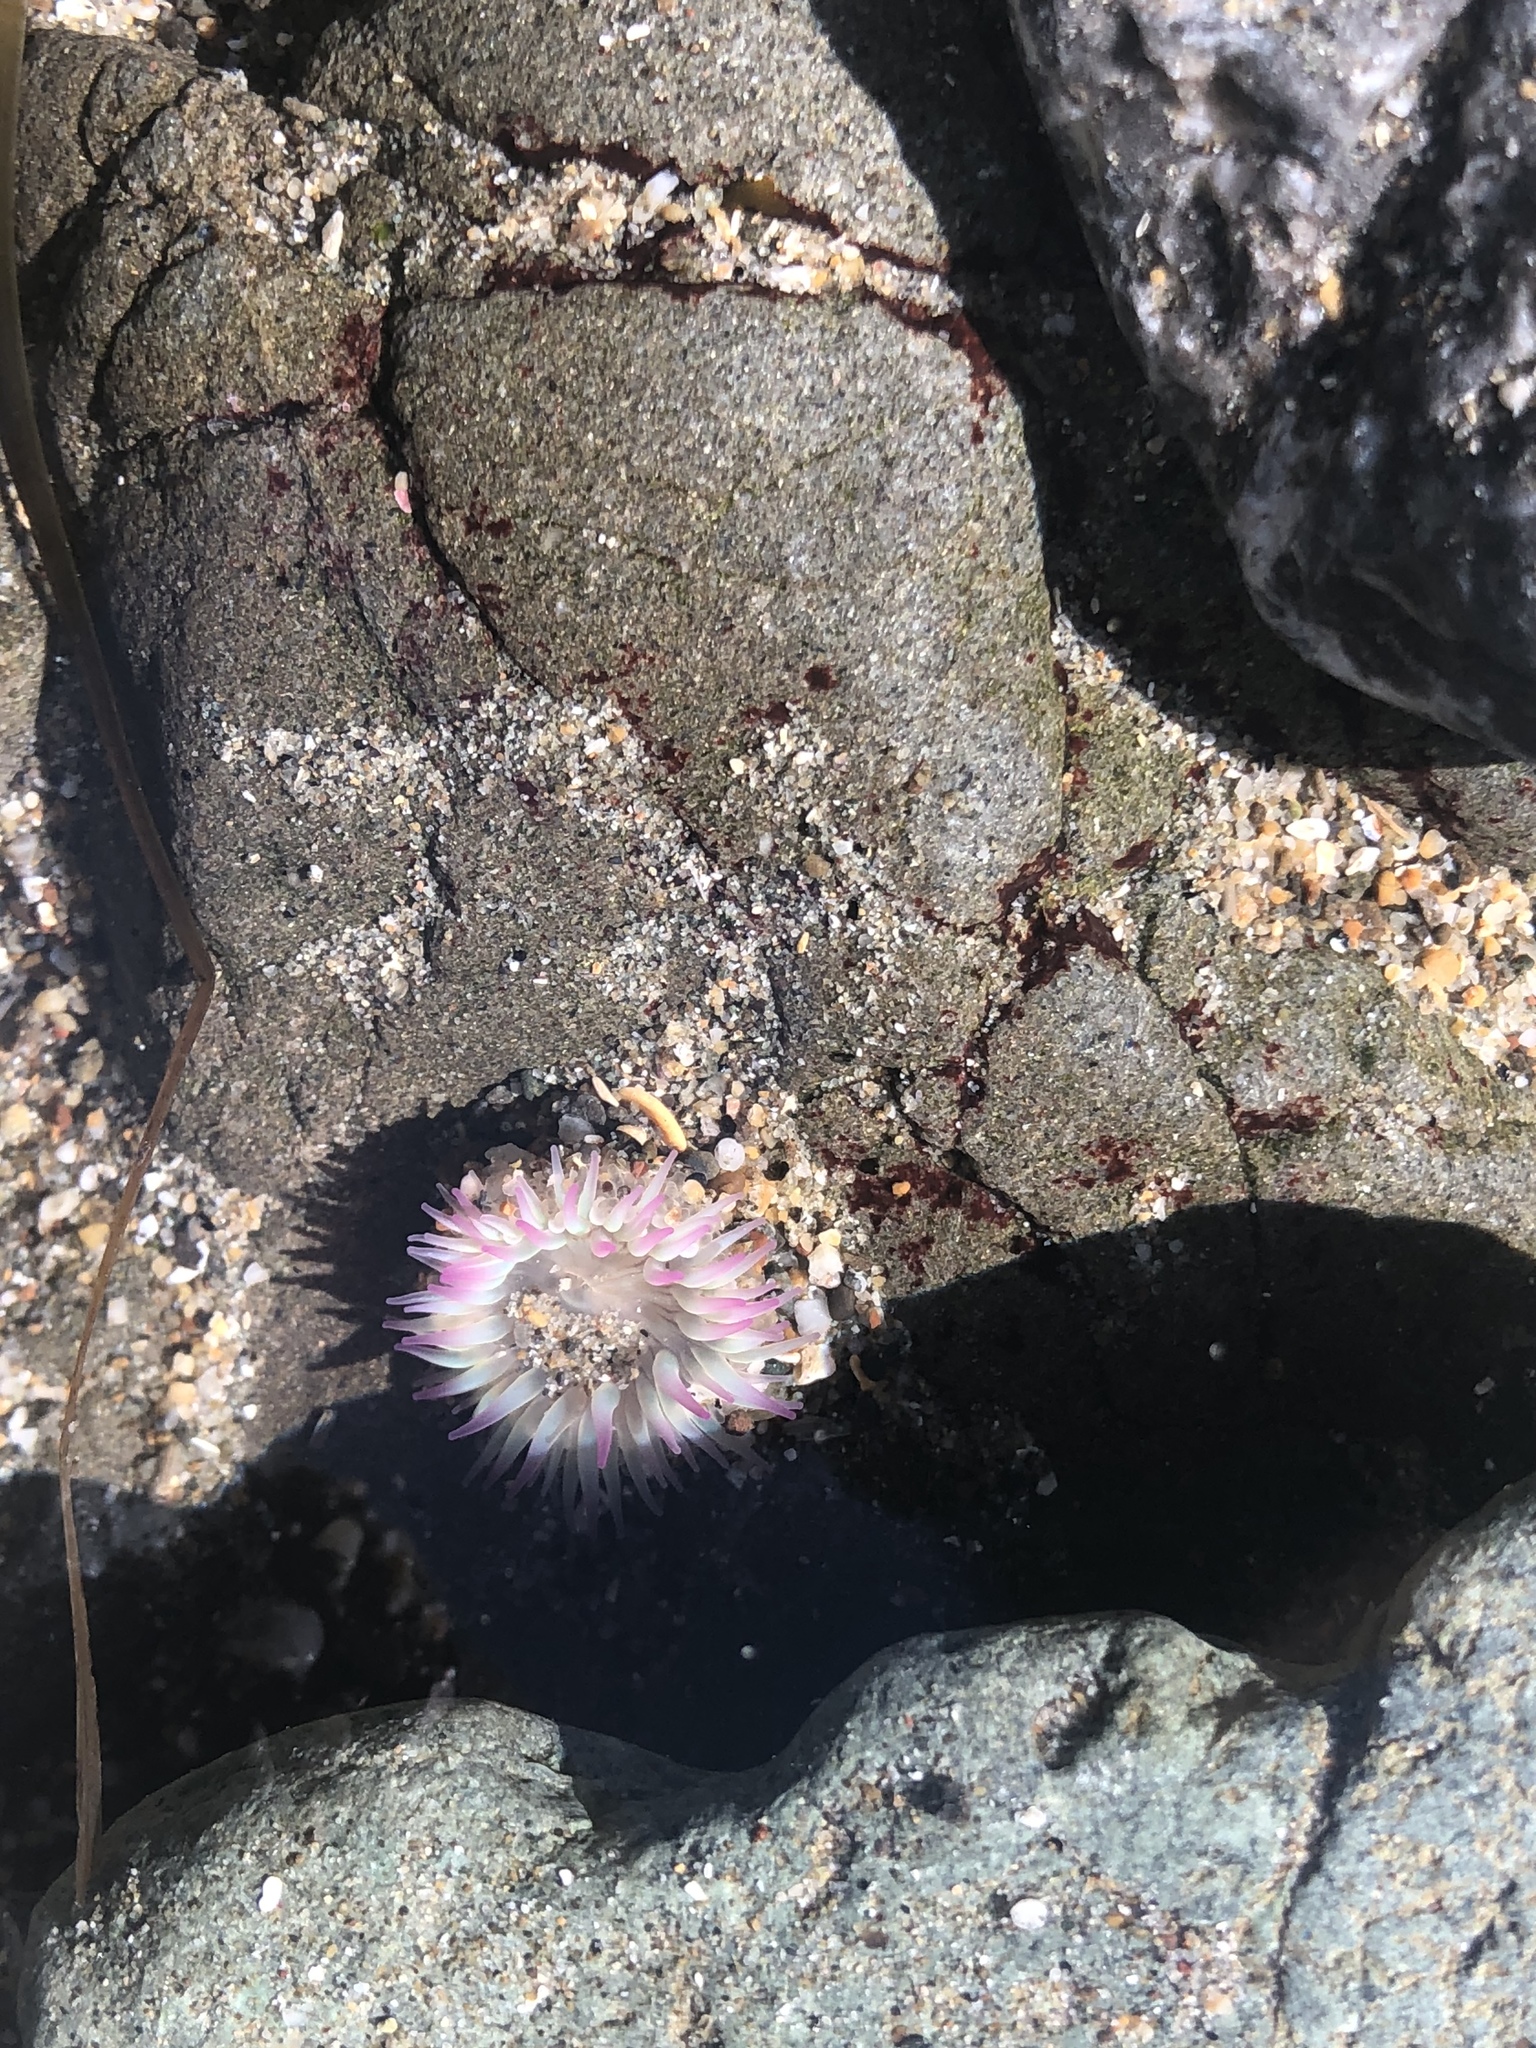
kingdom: Animalia
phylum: Cnidaria
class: Anthozoa
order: Actiniaria
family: Actiniidae
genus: Anthopleura
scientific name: Anthopleura elegantissima
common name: Clonal anemone
